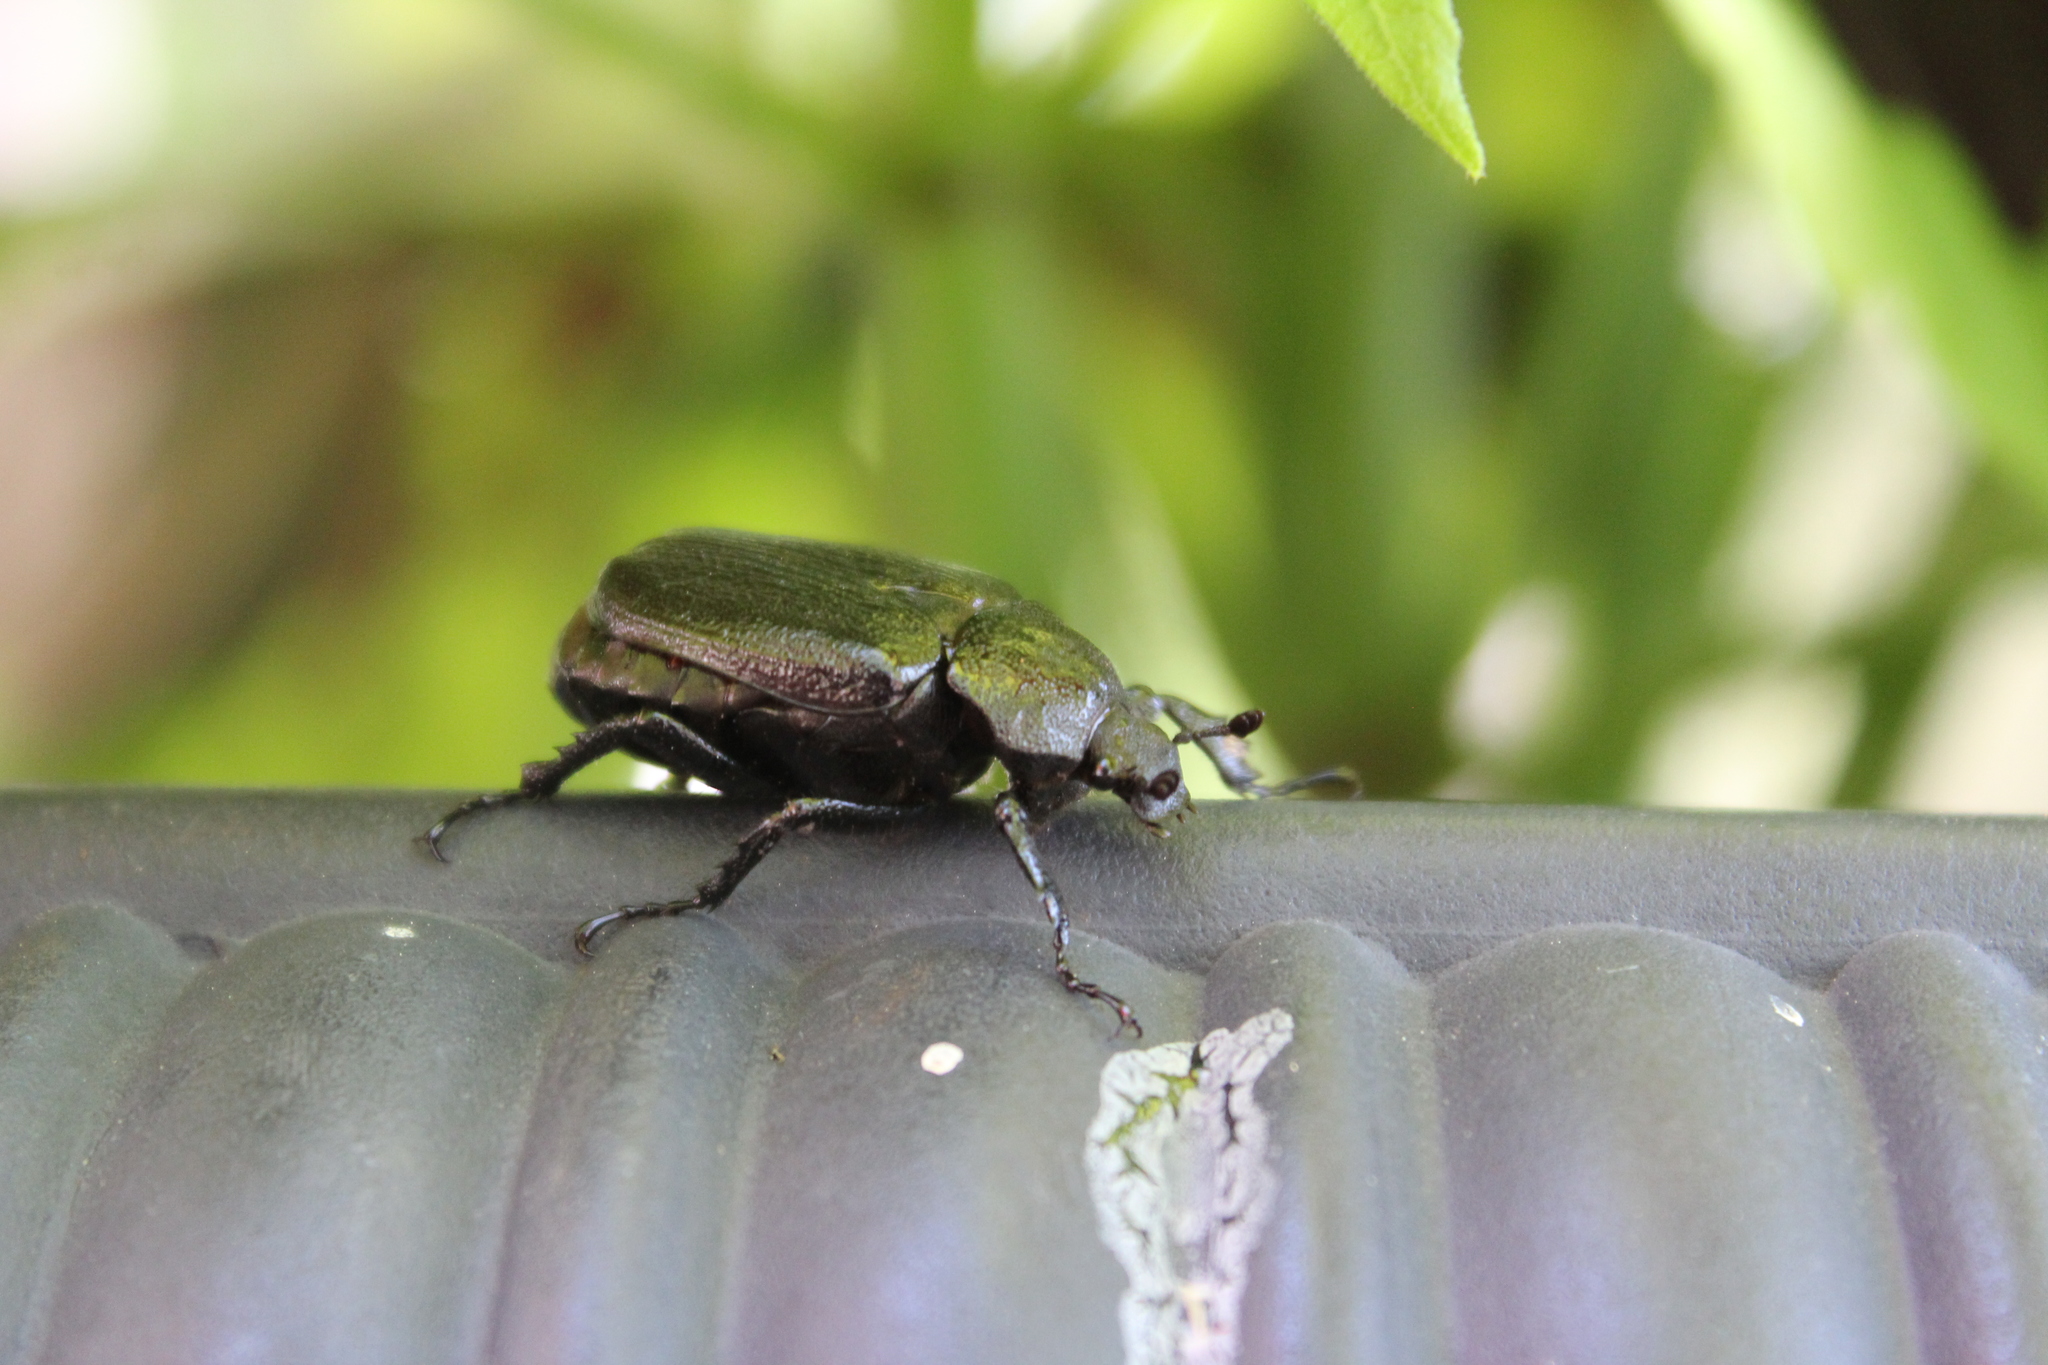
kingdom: Animalia
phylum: Arthropoda
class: Insecta
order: Coleoptera
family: Scarabaeidae
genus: Osmoderma
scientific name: Osmoderma scabra
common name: Rough hermit beetle
